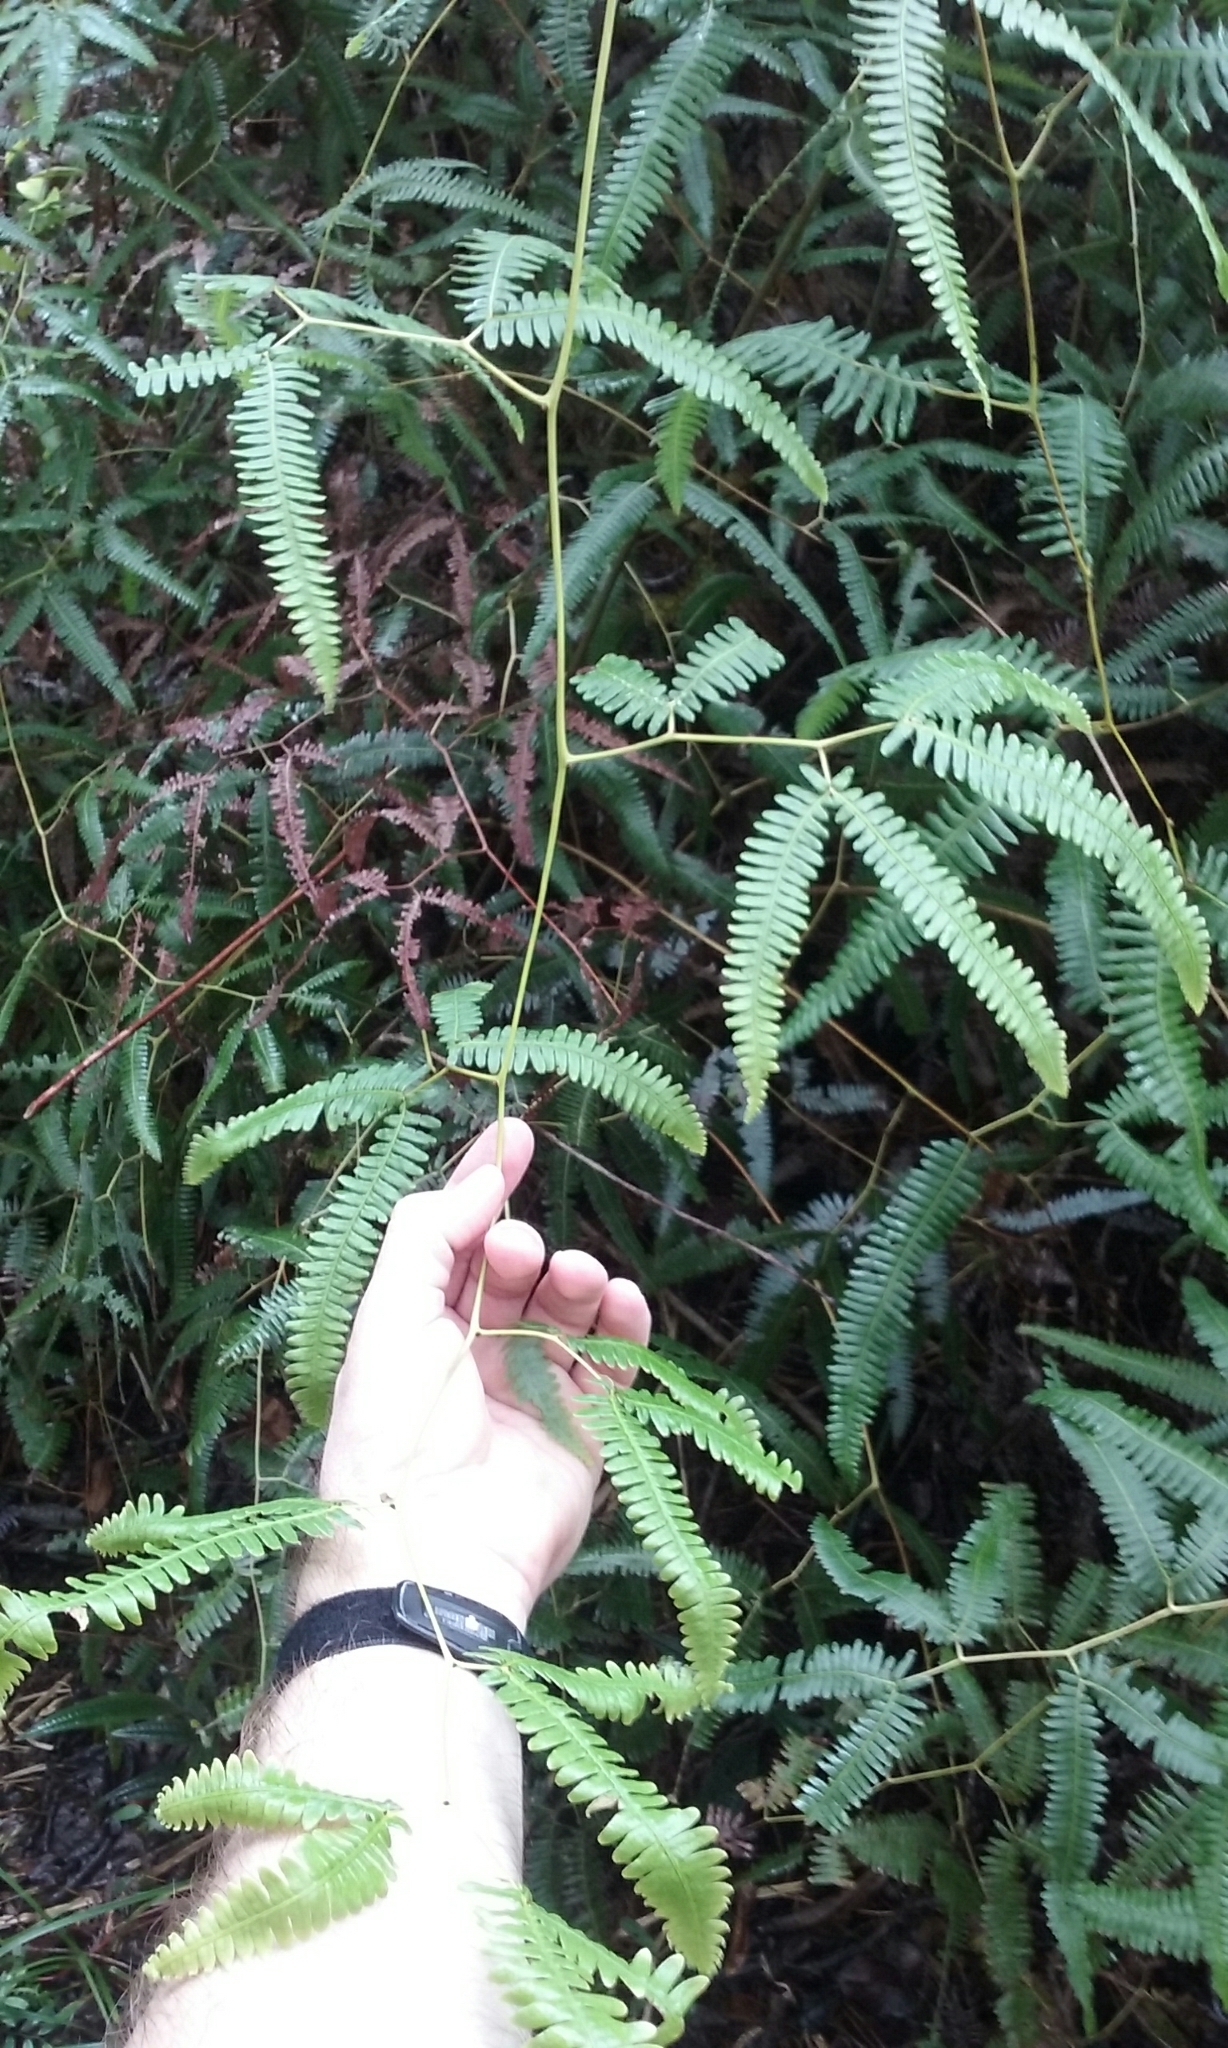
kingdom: Plantae
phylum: Tracheophyta
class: Polypodiopsida
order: Gleicheniales
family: Gleicheniaceae
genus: Gleichenella
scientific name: Gleichenella pectinata
